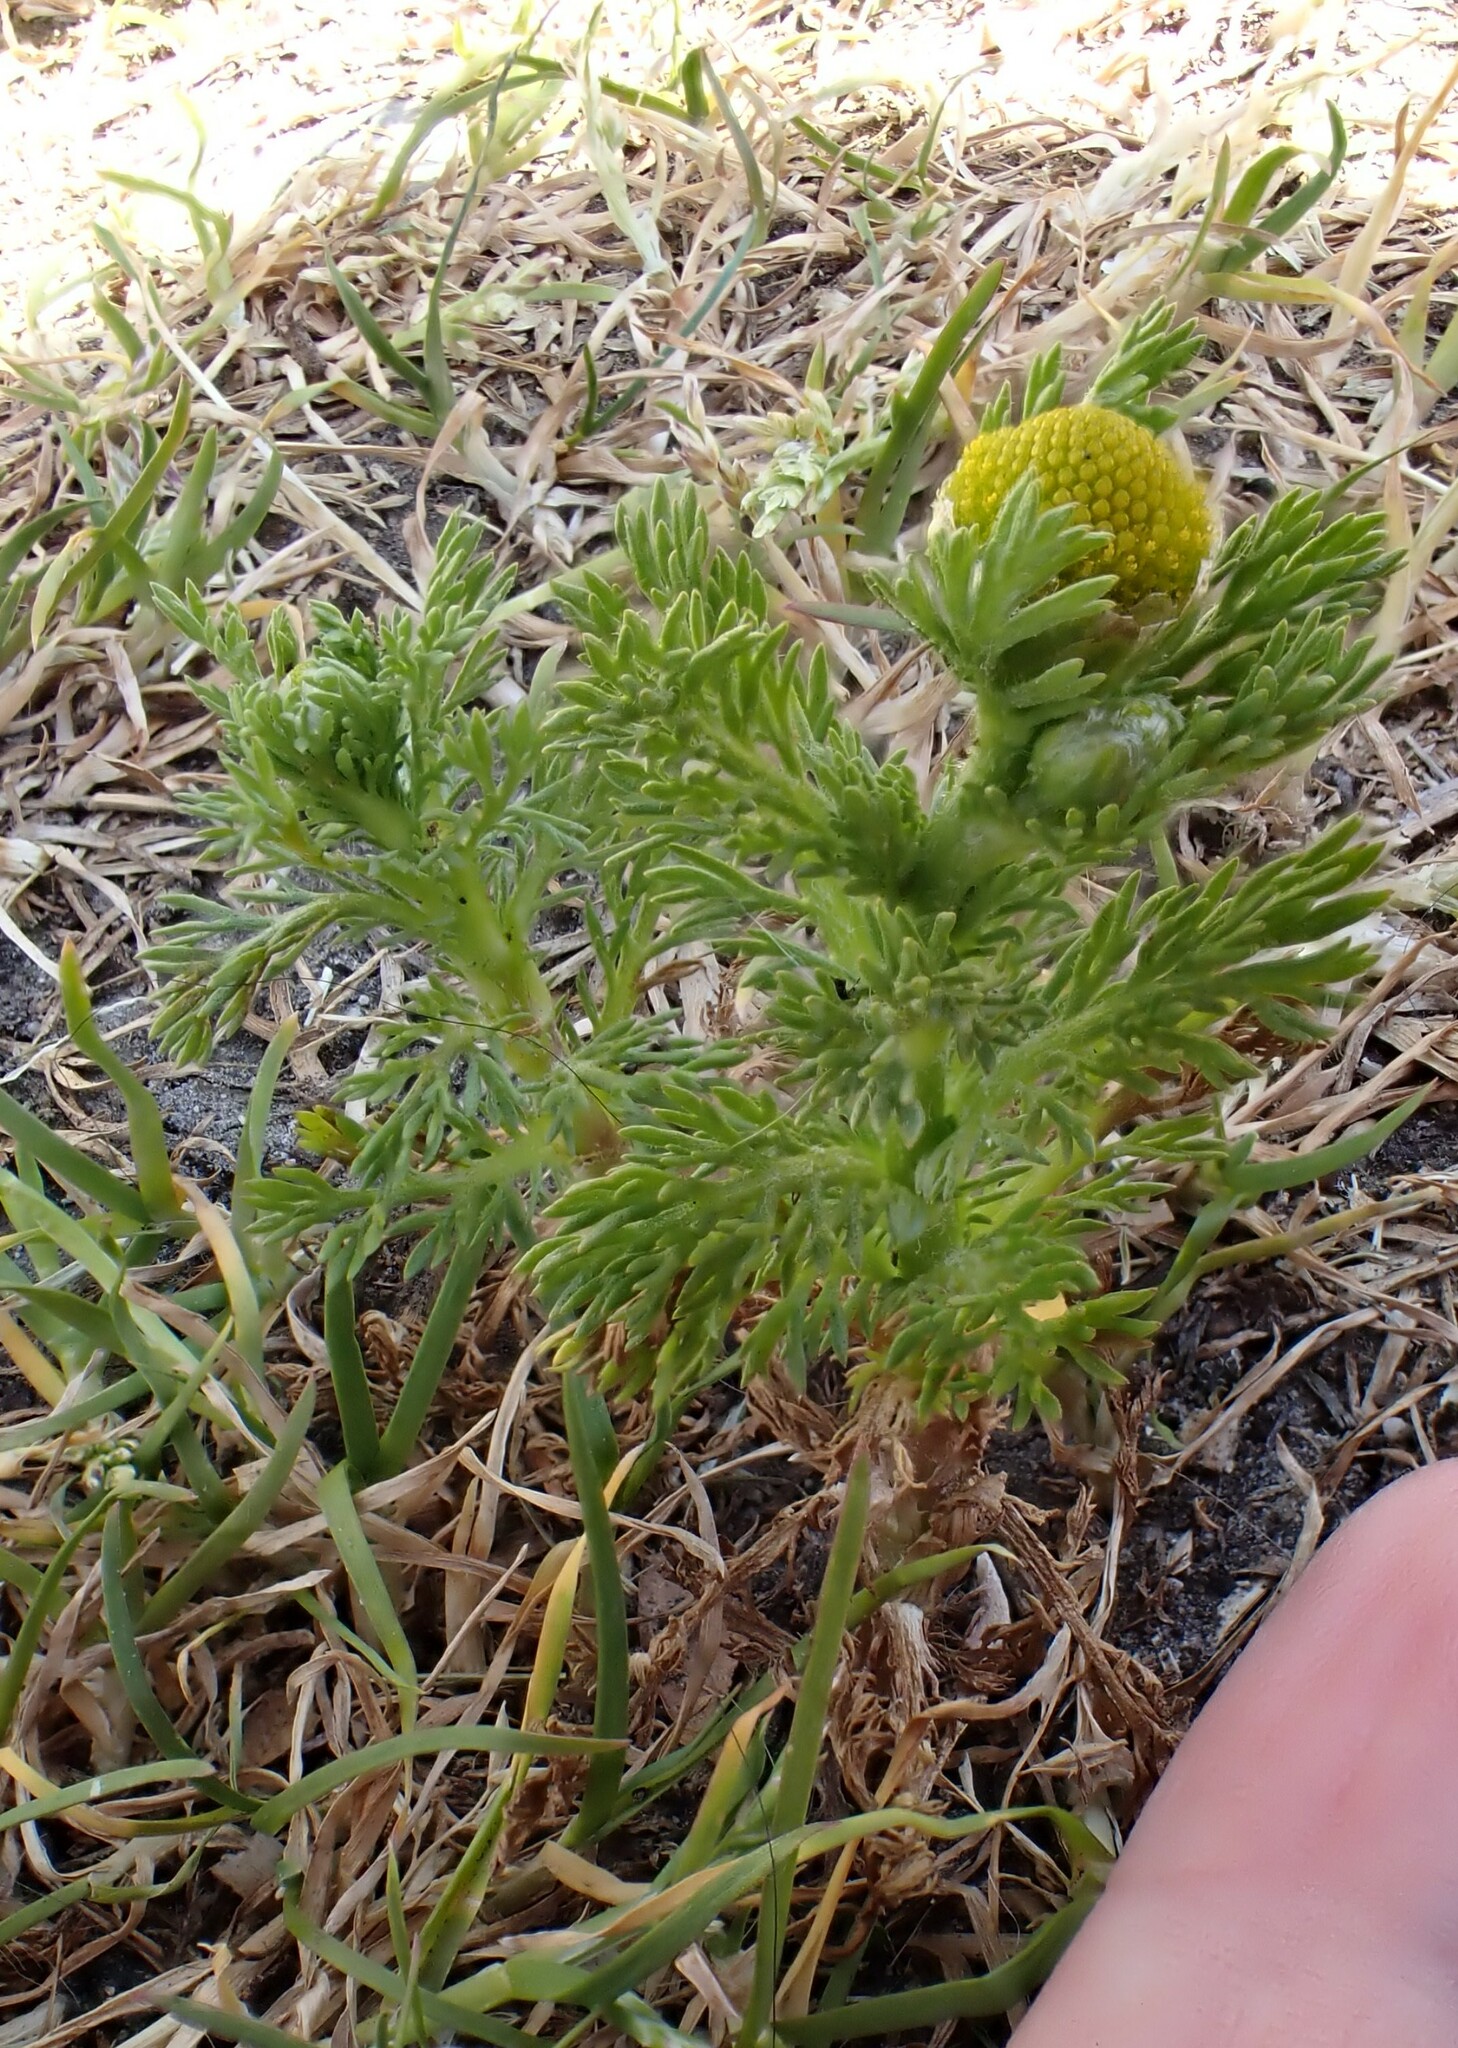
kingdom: Plantae
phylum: Tracheophyta
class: Magnoliopsida
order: Asterales
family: Asteraceae
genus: Matricaria
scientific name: Matricaria discoidea
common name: Disc mayweed
